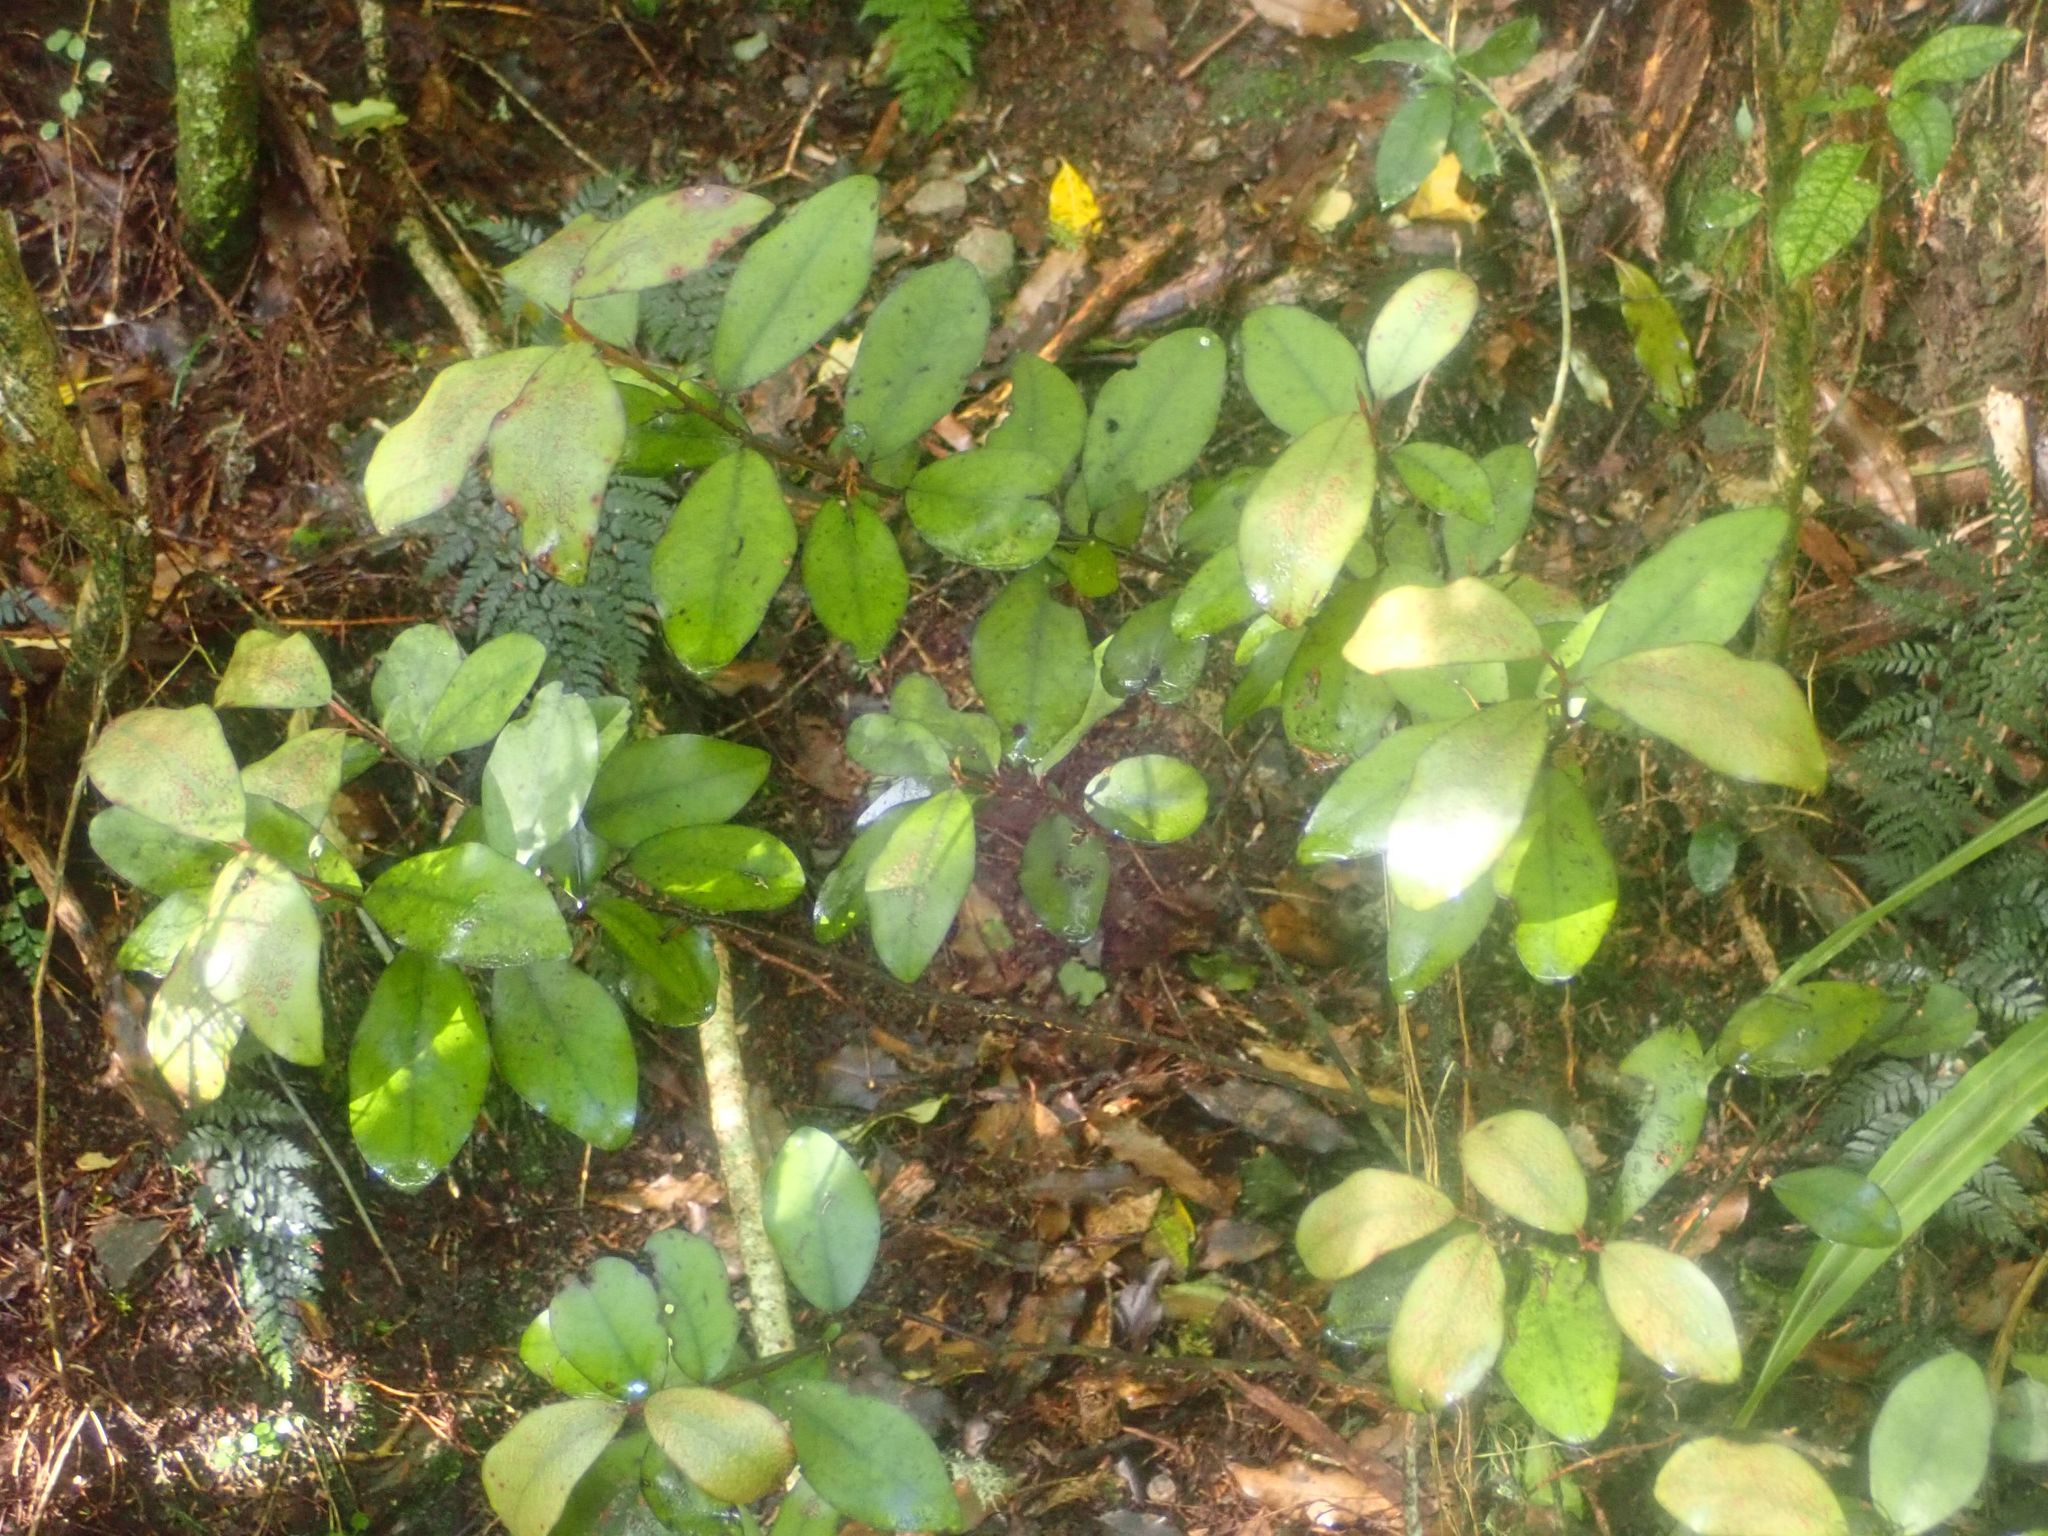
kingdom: Plantae
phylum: Tracheophyta
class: Magnoliopsida
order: Canellales
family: Winteraceae
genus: Pseudowintera
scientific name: Pseudowintera colorata
